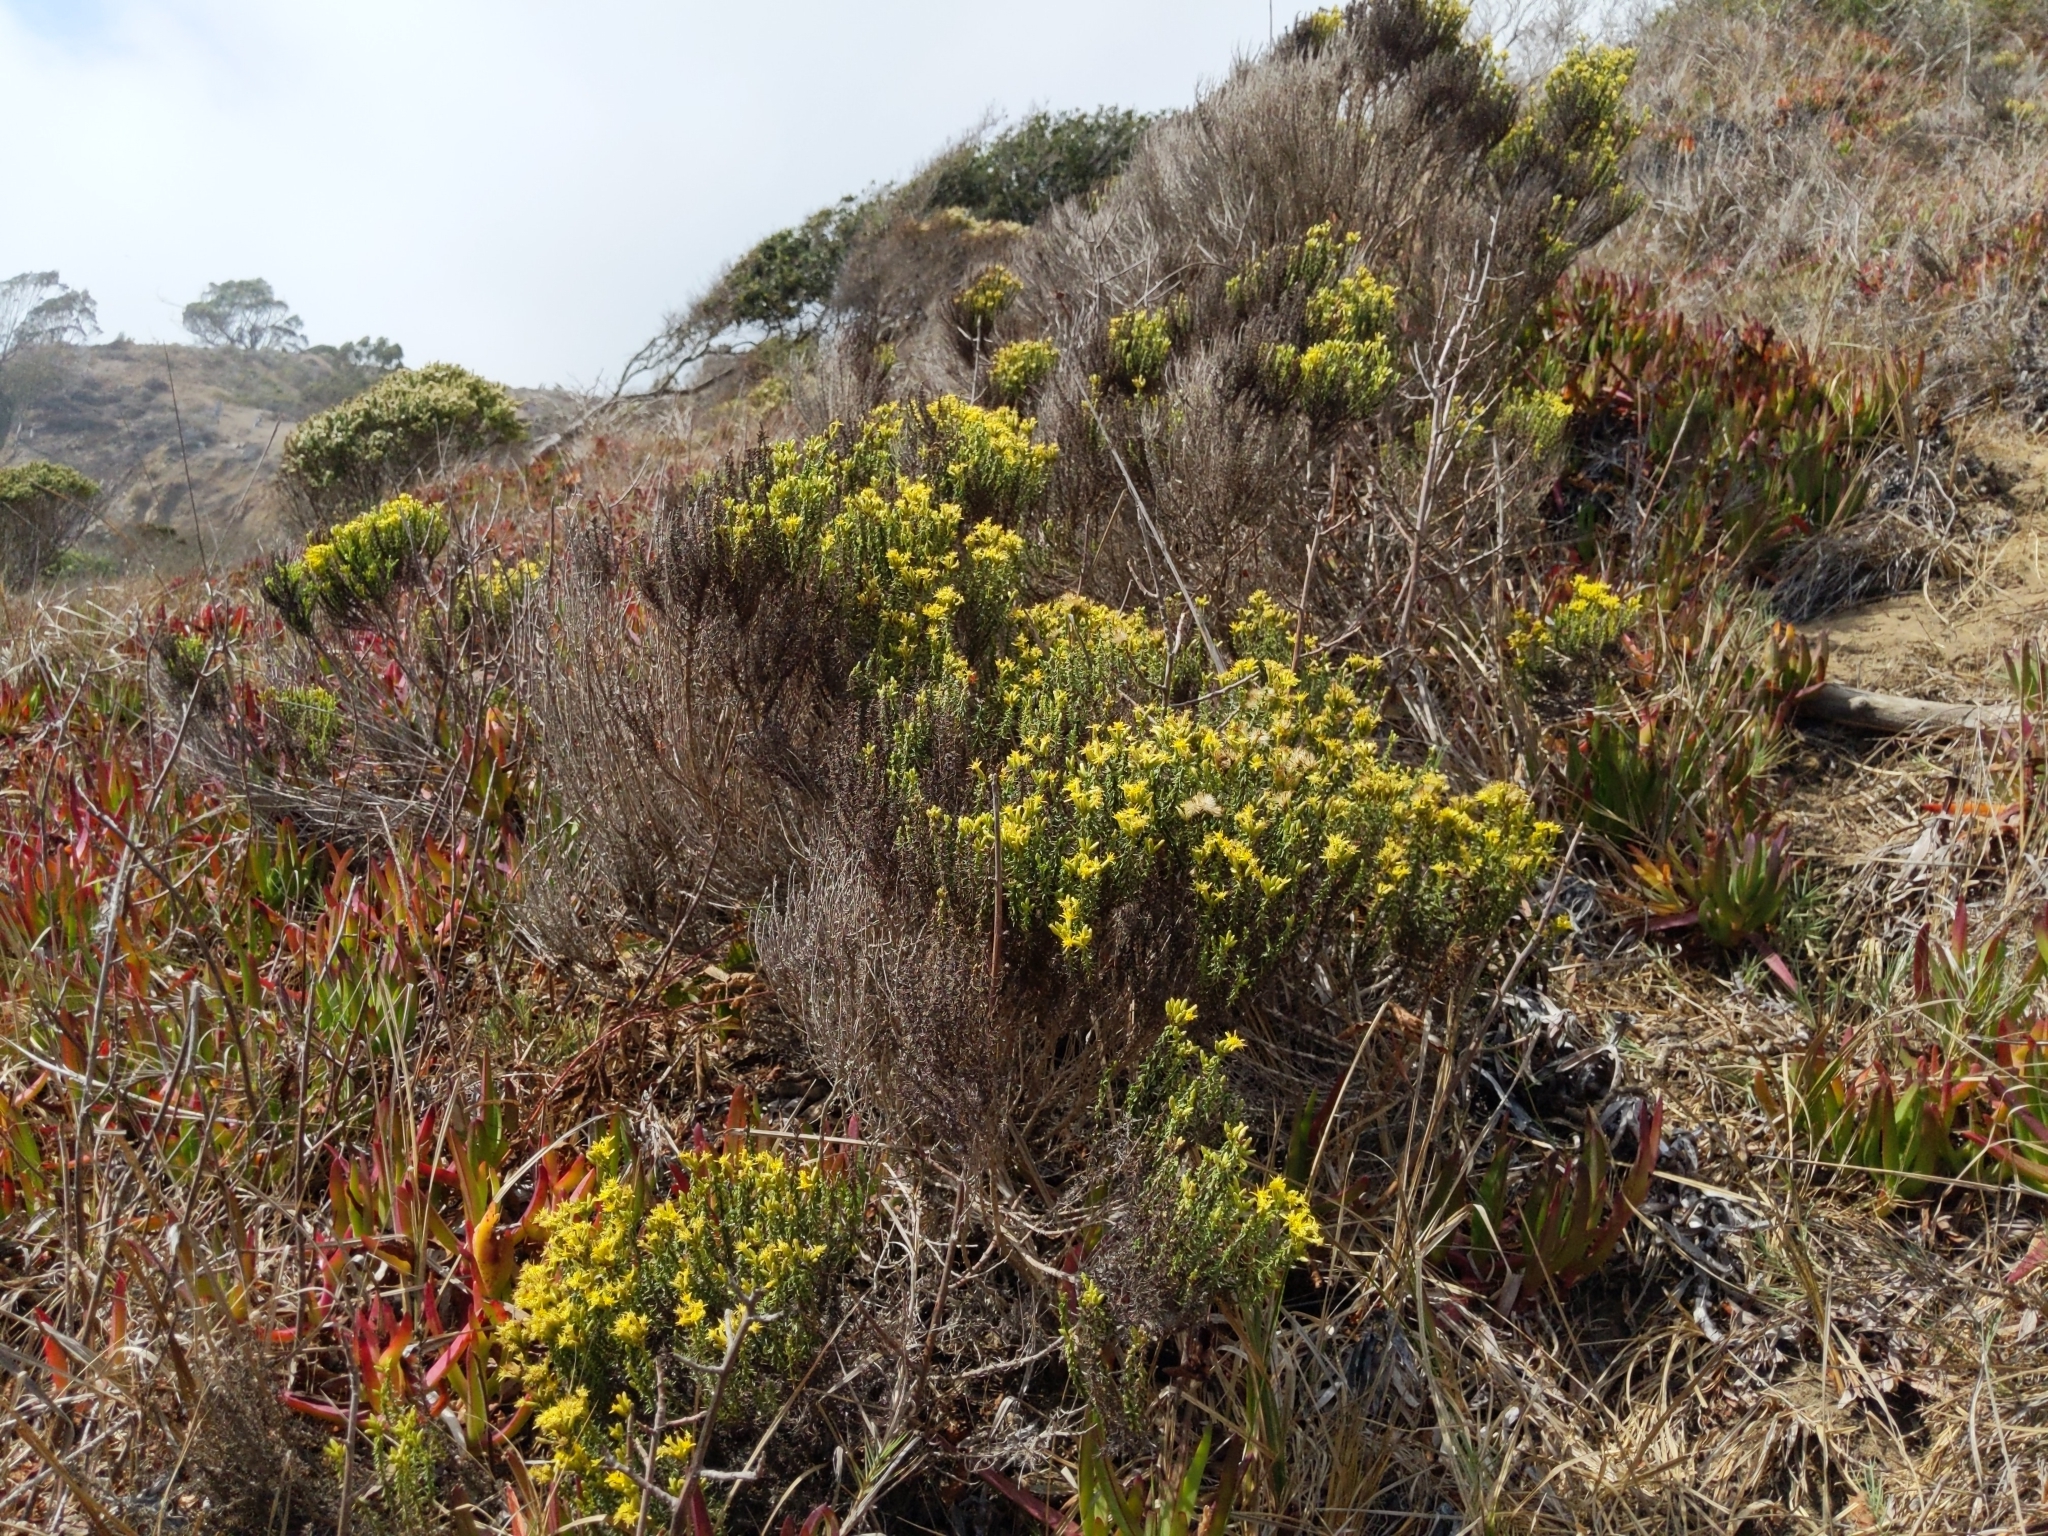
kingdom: Plantae
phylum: Tracheophyta
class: Magnoliopsida
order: Asterales
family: Asteraceae
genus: Ericameria
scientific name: Ericameria ericoides
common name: California goldenbush
